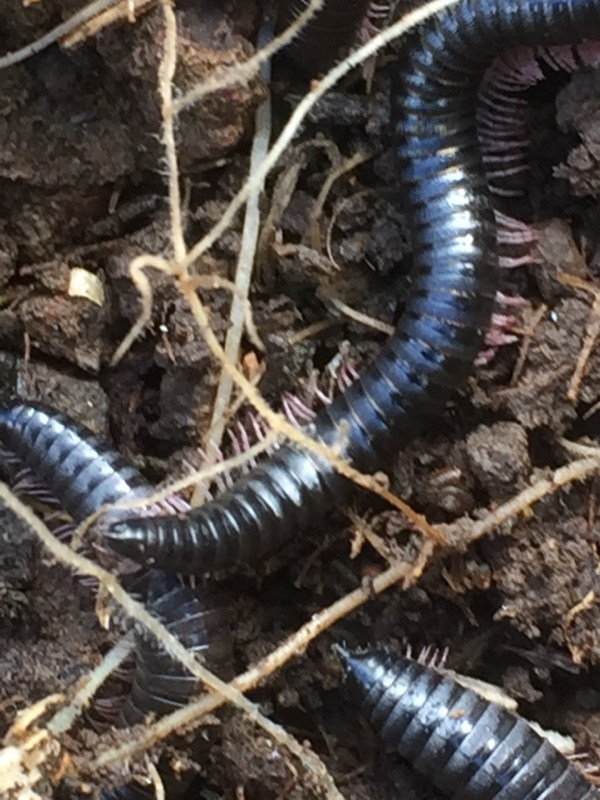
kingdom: Animalia
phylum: Arthropoda
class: Diplopoda
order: Julida
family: Julidae
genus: Ommatoiulus
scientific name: Ommatoiulus moreleti
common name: Portuguese millipede
